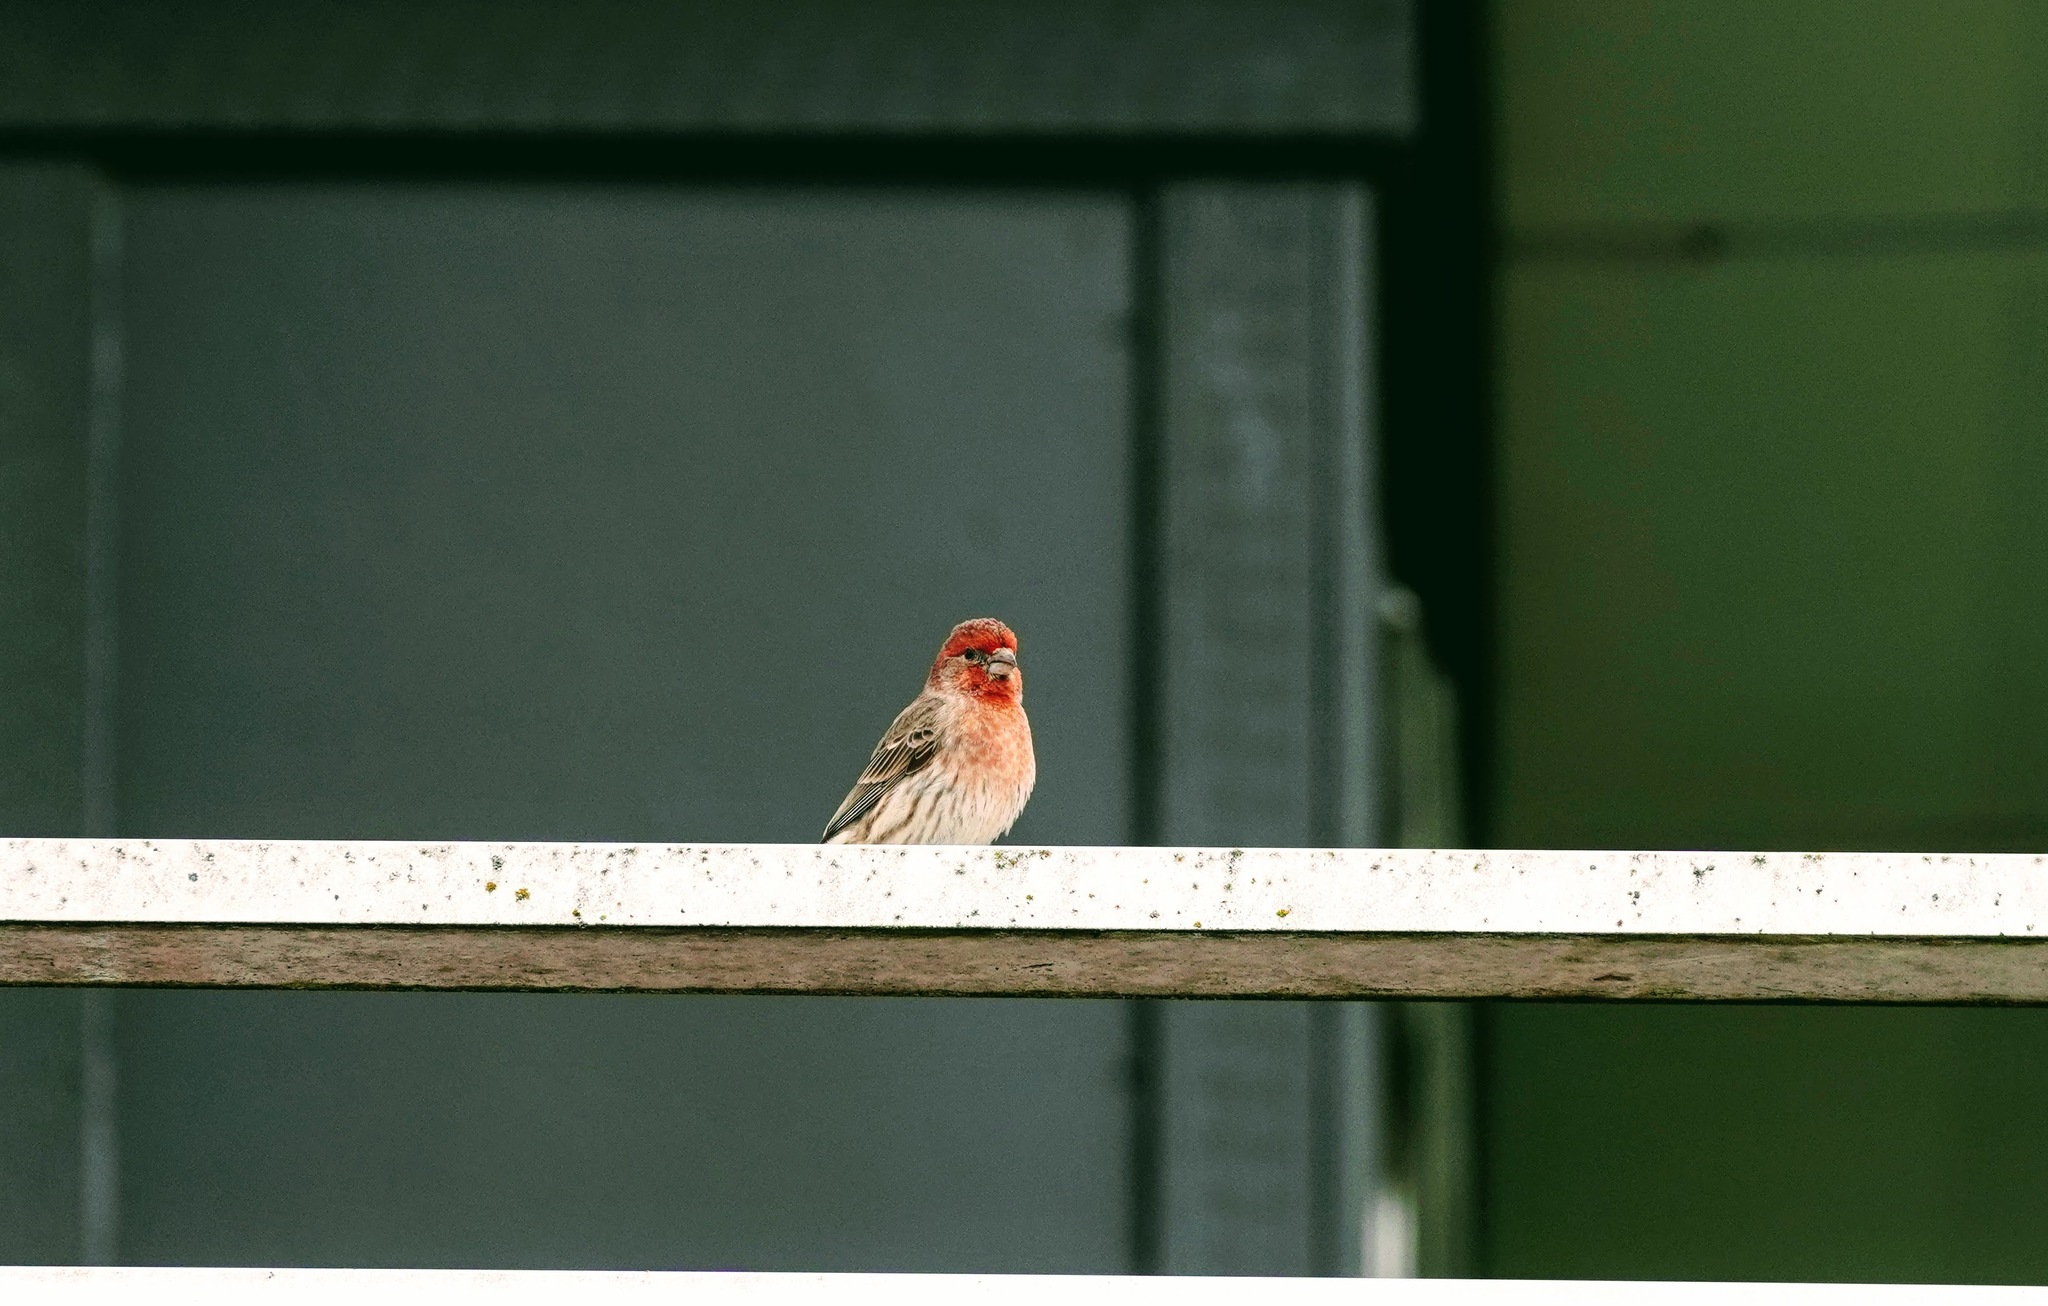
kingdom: Animalia
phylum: Chordata
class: Aves
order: Passeriformes
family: Fringillidae
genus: Haemorhous
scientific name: Haemorhous mexicanus
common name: House finch
